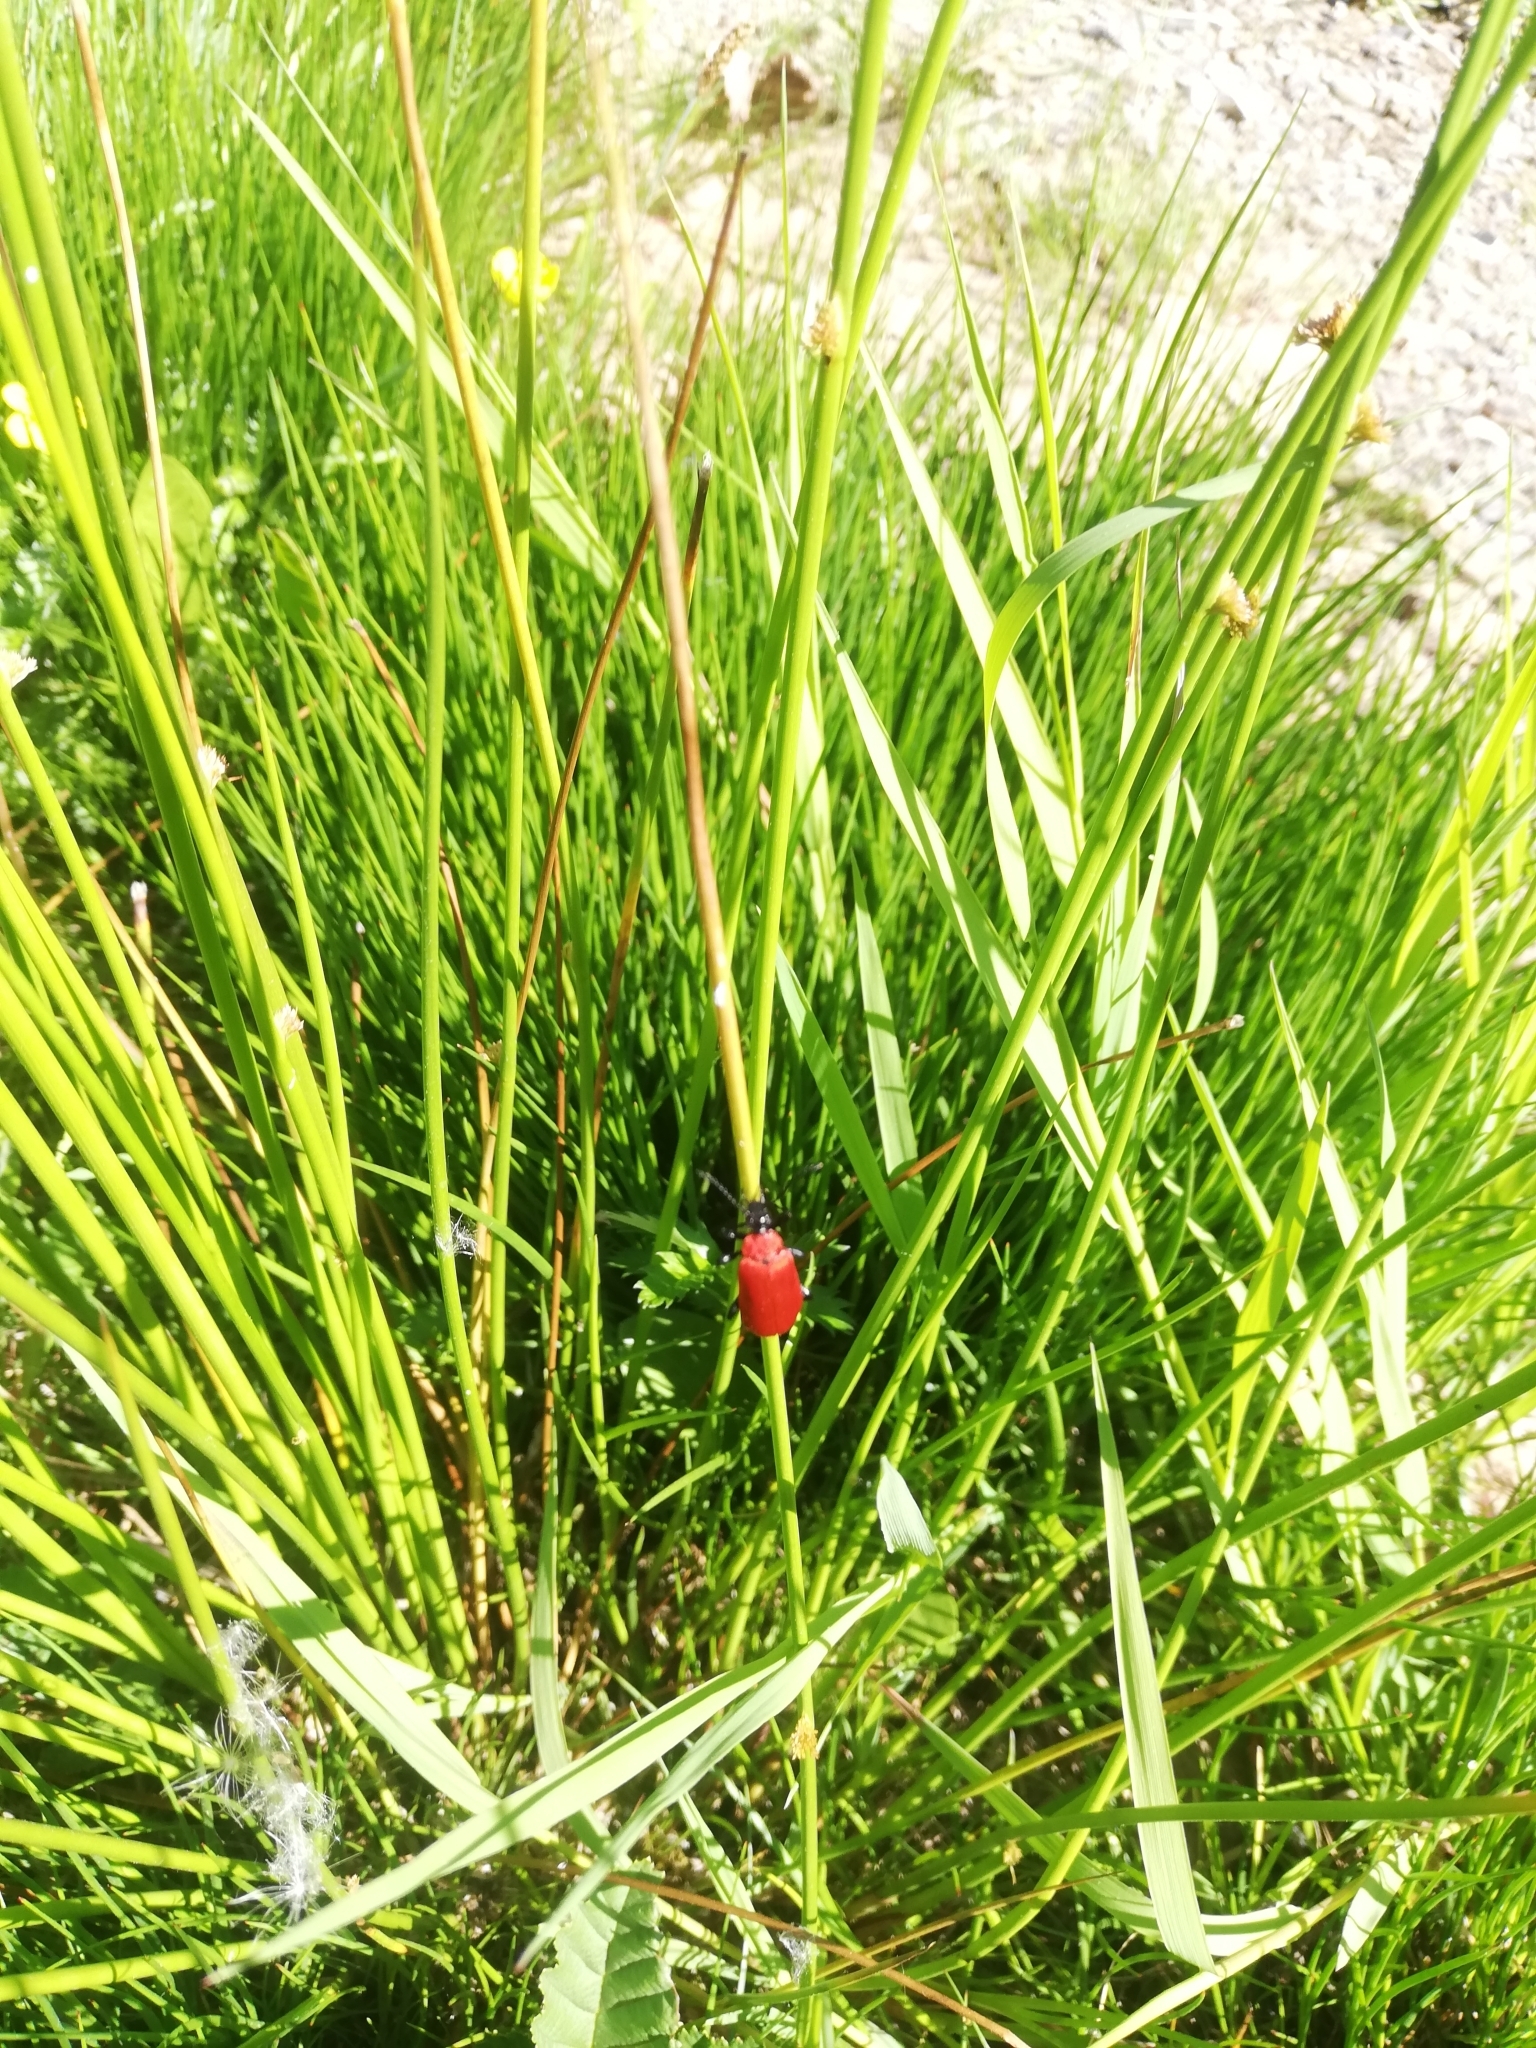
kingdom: Animalia
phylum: Arthropoda
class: Insecta
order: Coleoptera
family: Pyrochroidae
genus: Pyrochroa
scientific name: Pyrochroa coccinea
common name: Black-headed cardinal beetle
